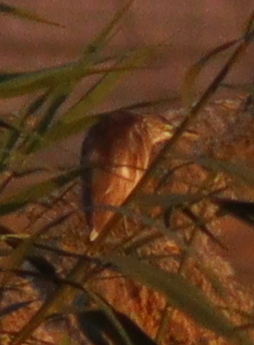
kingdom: Animalia
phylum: Chordata
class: Aves
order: Pelecaniformes
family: Ardeidae
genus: Ardeola
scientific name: Ardeola ralloides
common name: Squacco heron
